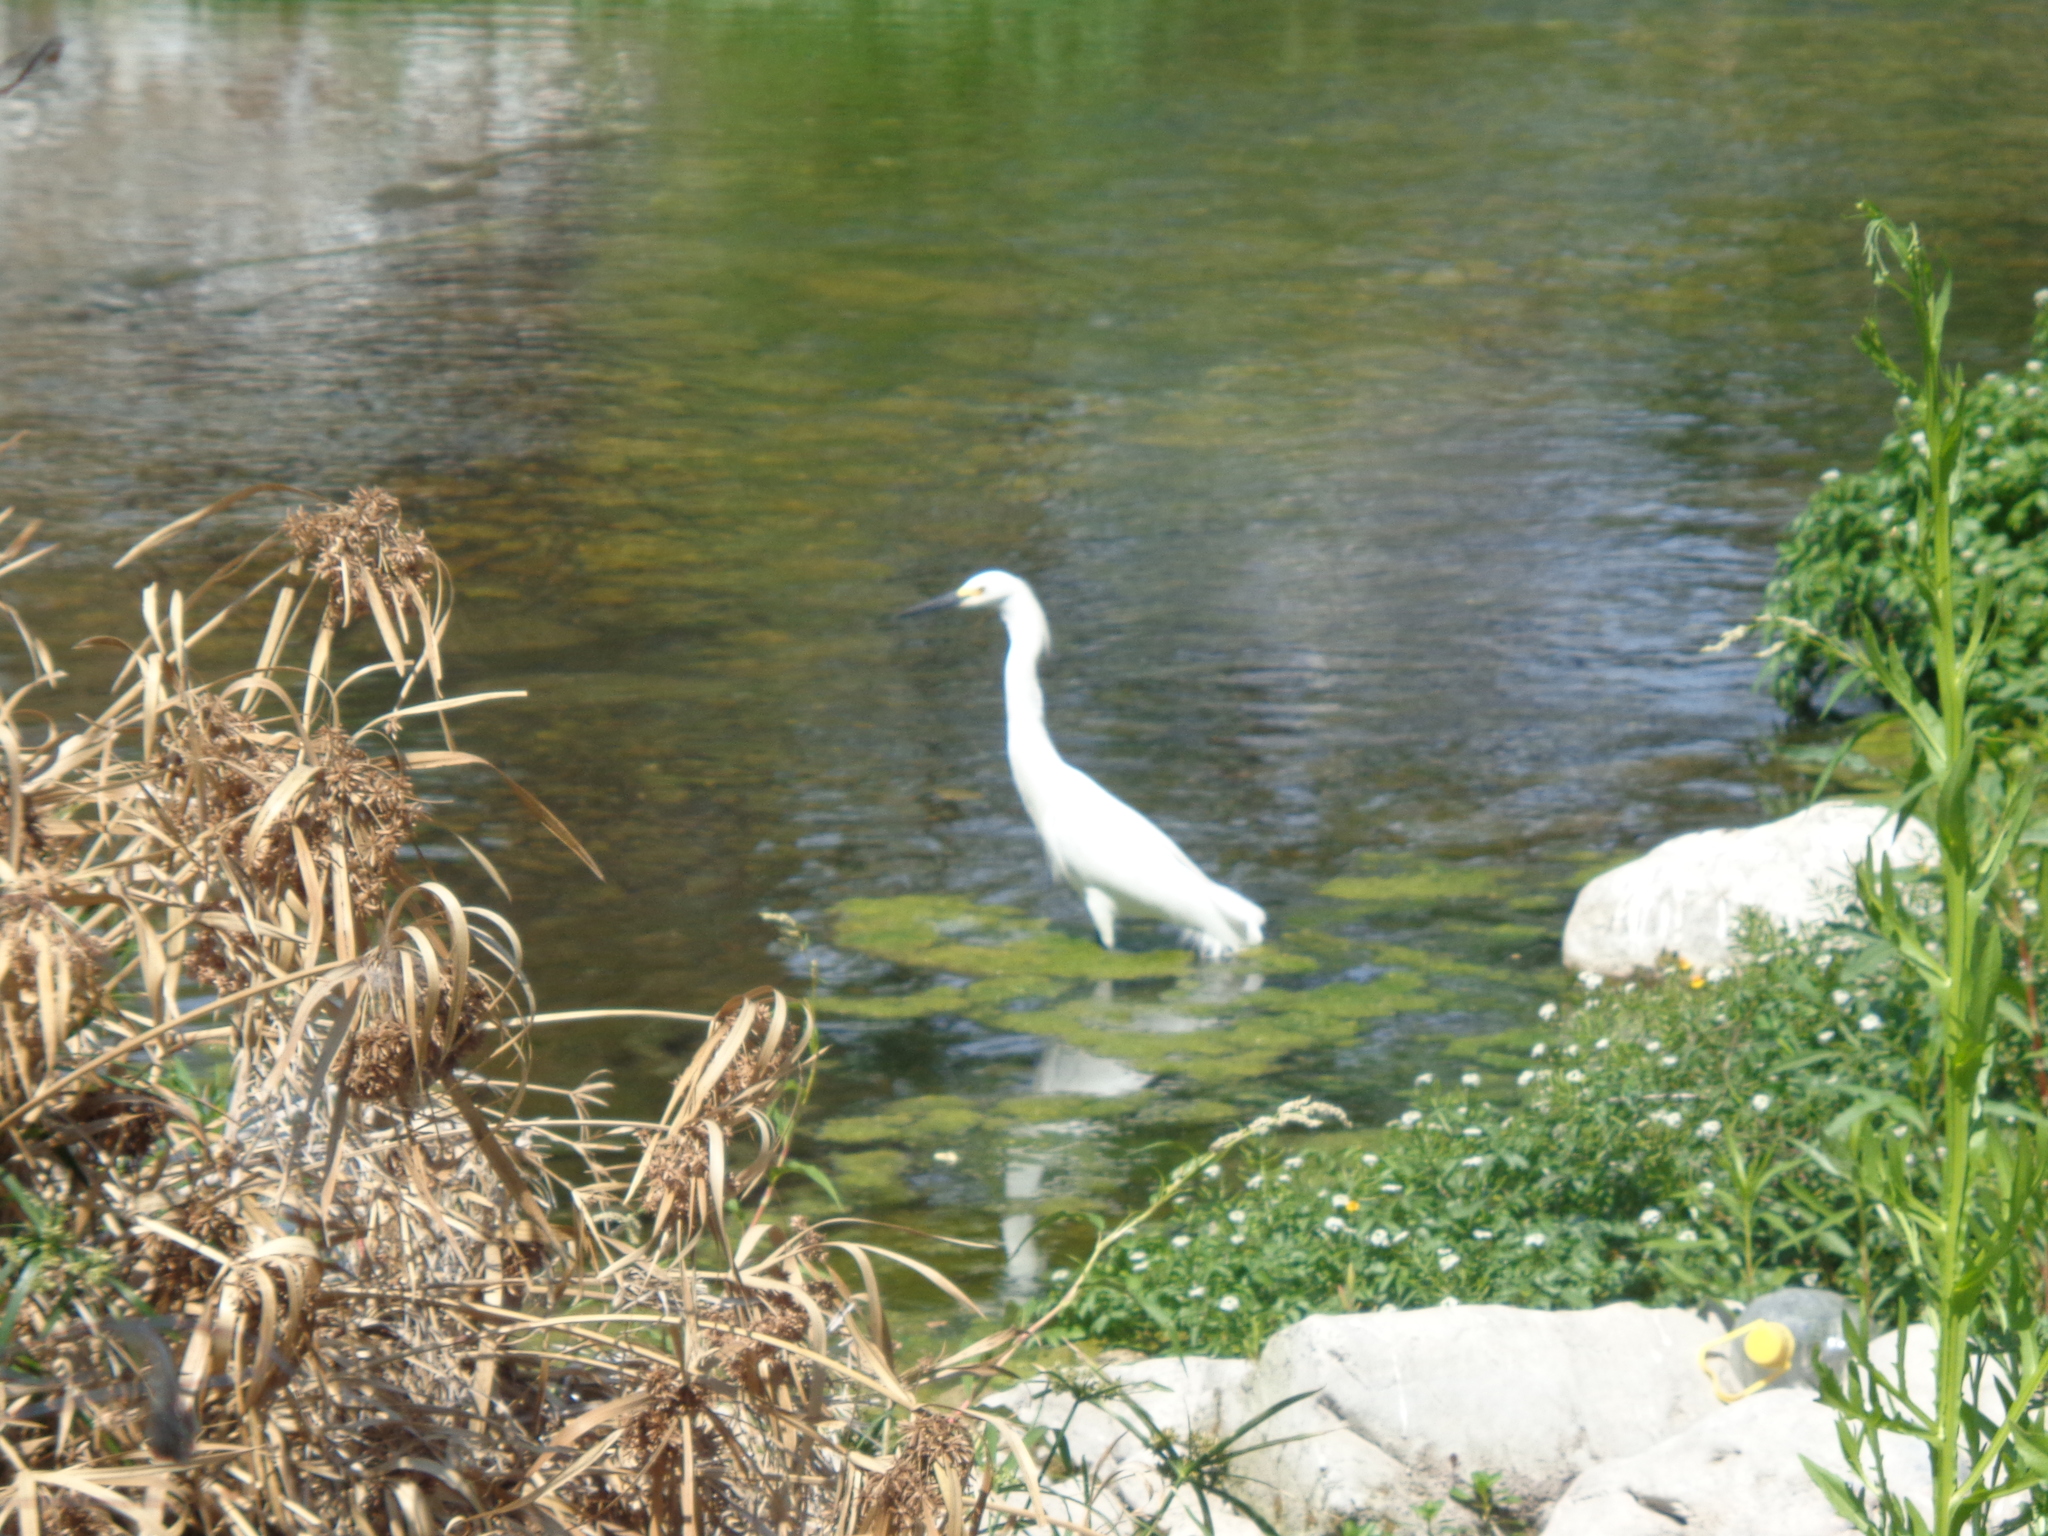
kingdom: Animalia
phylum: Chordata
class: Aves
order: Pelecaniformes
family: Ardeidae
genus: Egretta
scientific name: Egretta thula
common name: Snowy egret
